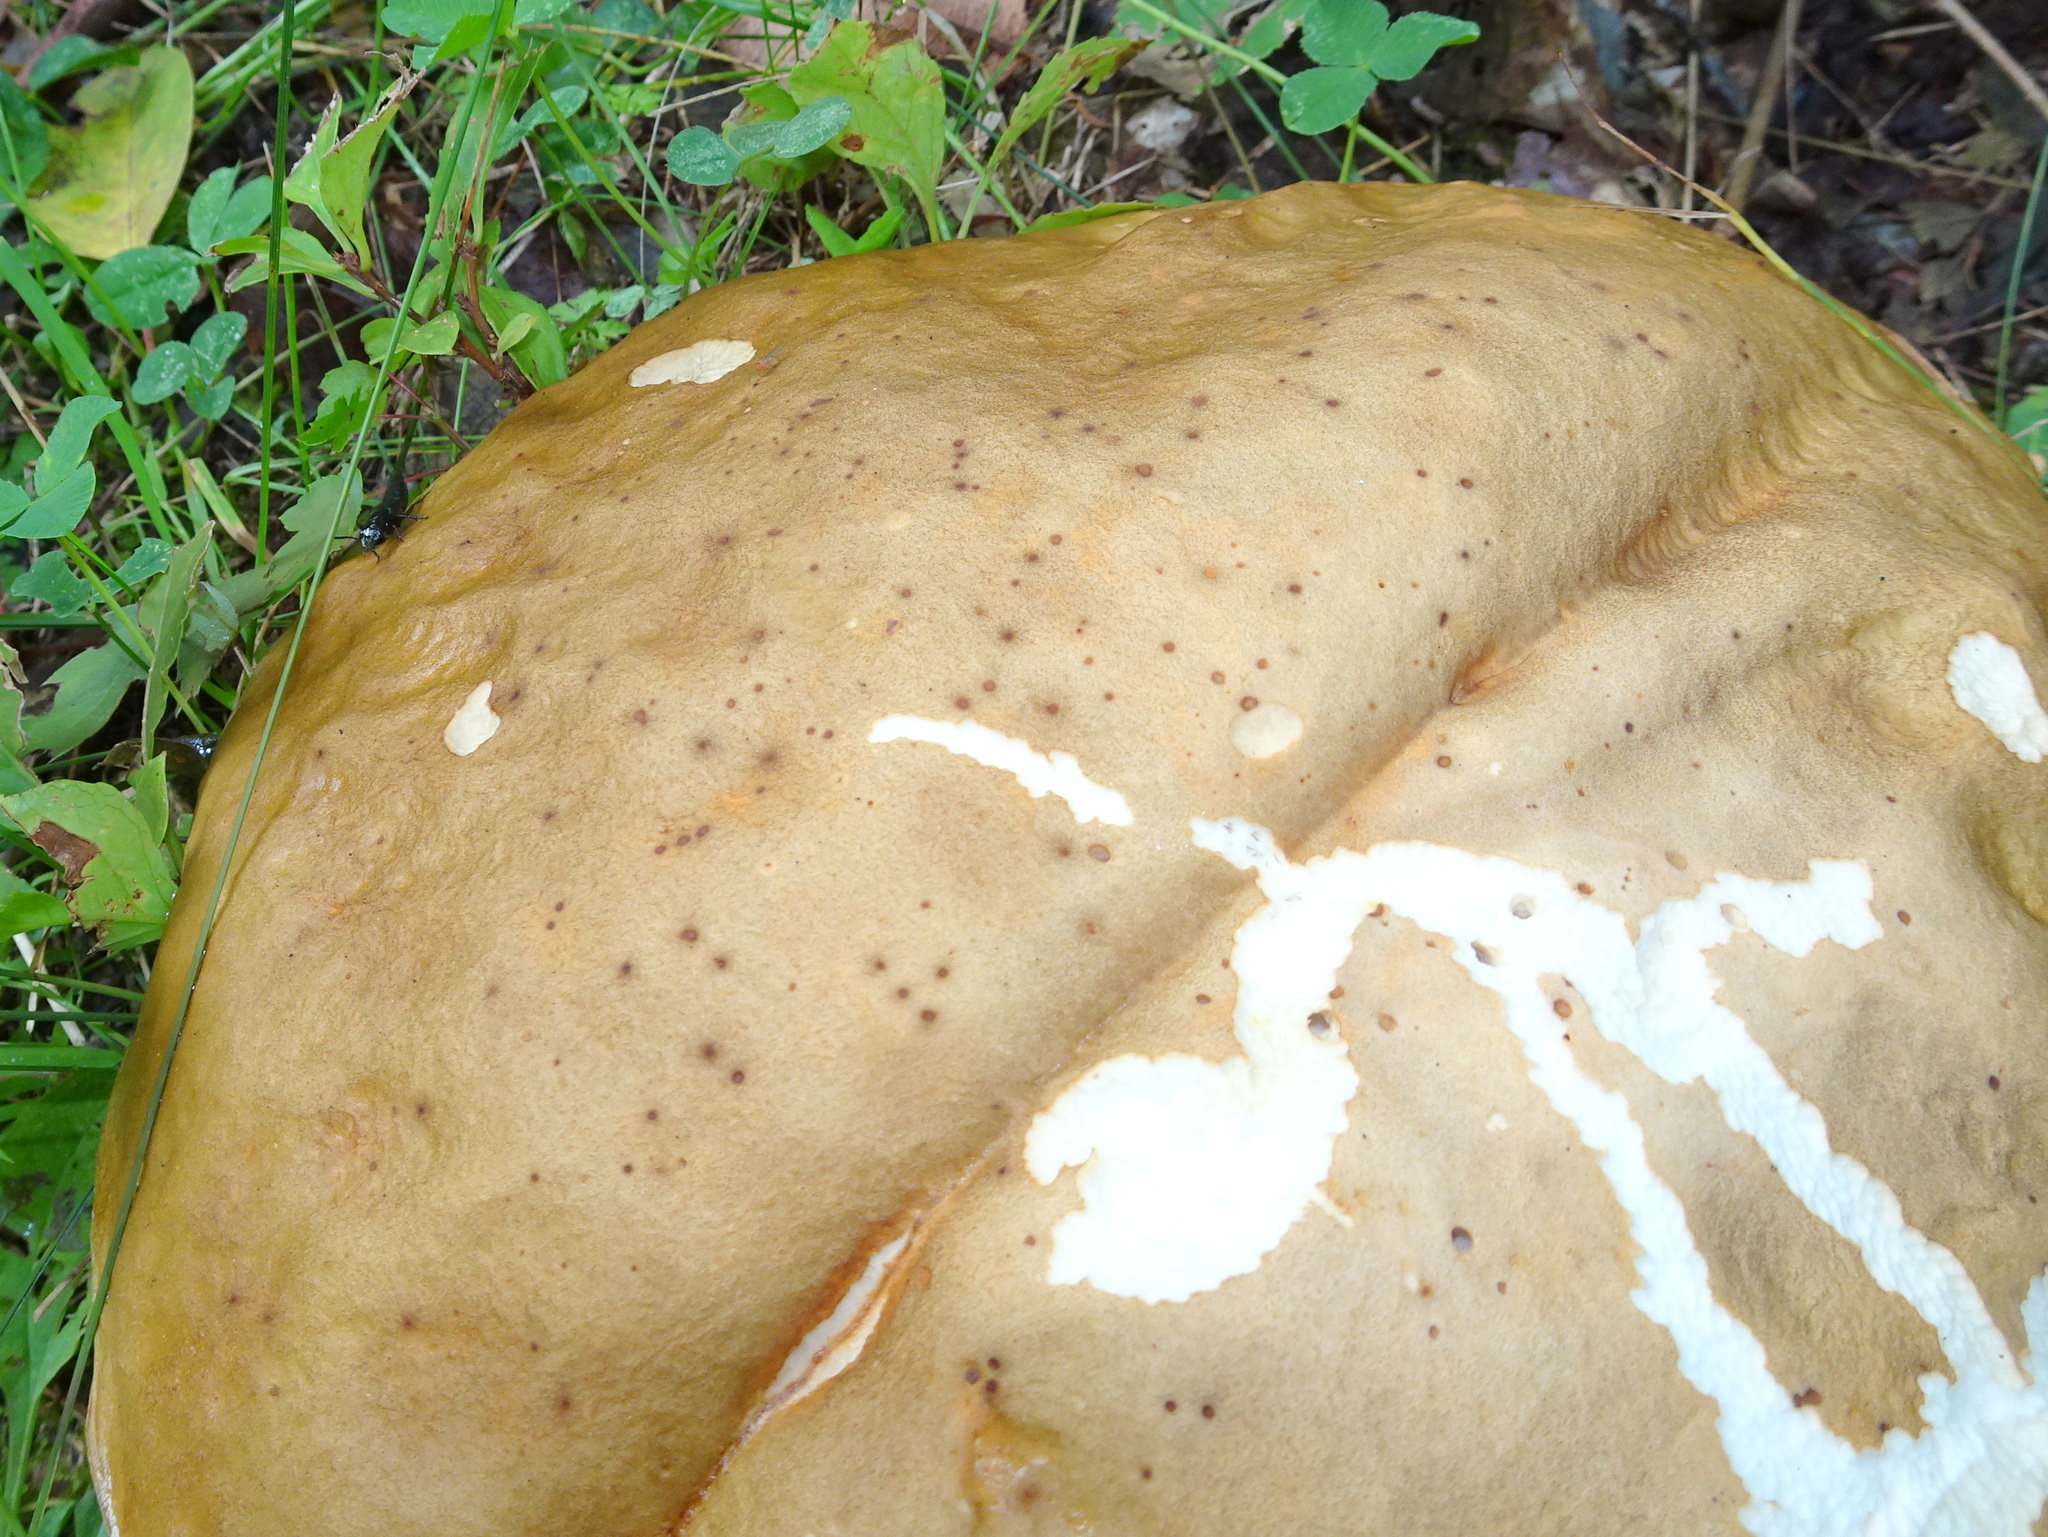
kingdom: Animalia
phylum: Arthropoda
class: Insecta
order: Coleoptera
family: Staphylinidae
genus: Philonthus
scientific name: Philonthus caeruleipennis
